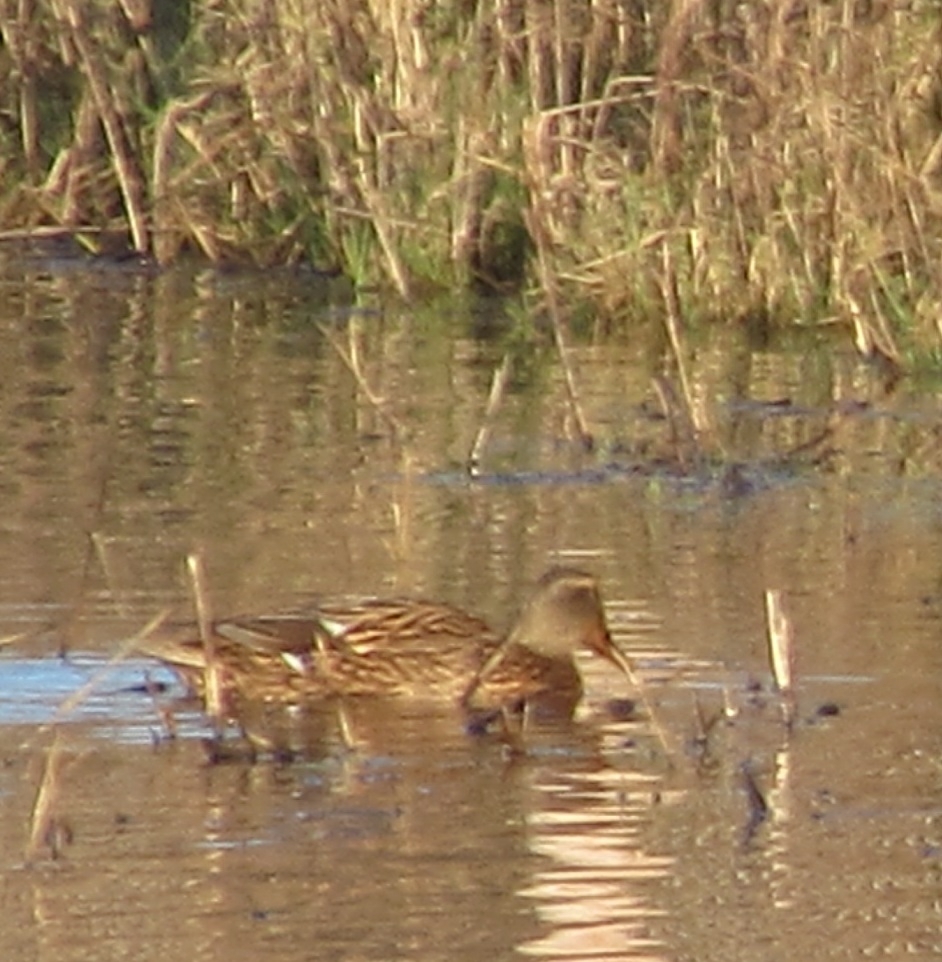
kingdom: Animalia
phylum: Chordata
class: Aves
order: Anseriformes
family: Anatidae
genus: Anas
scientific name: Anas platyrhynchos
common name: Mallard
